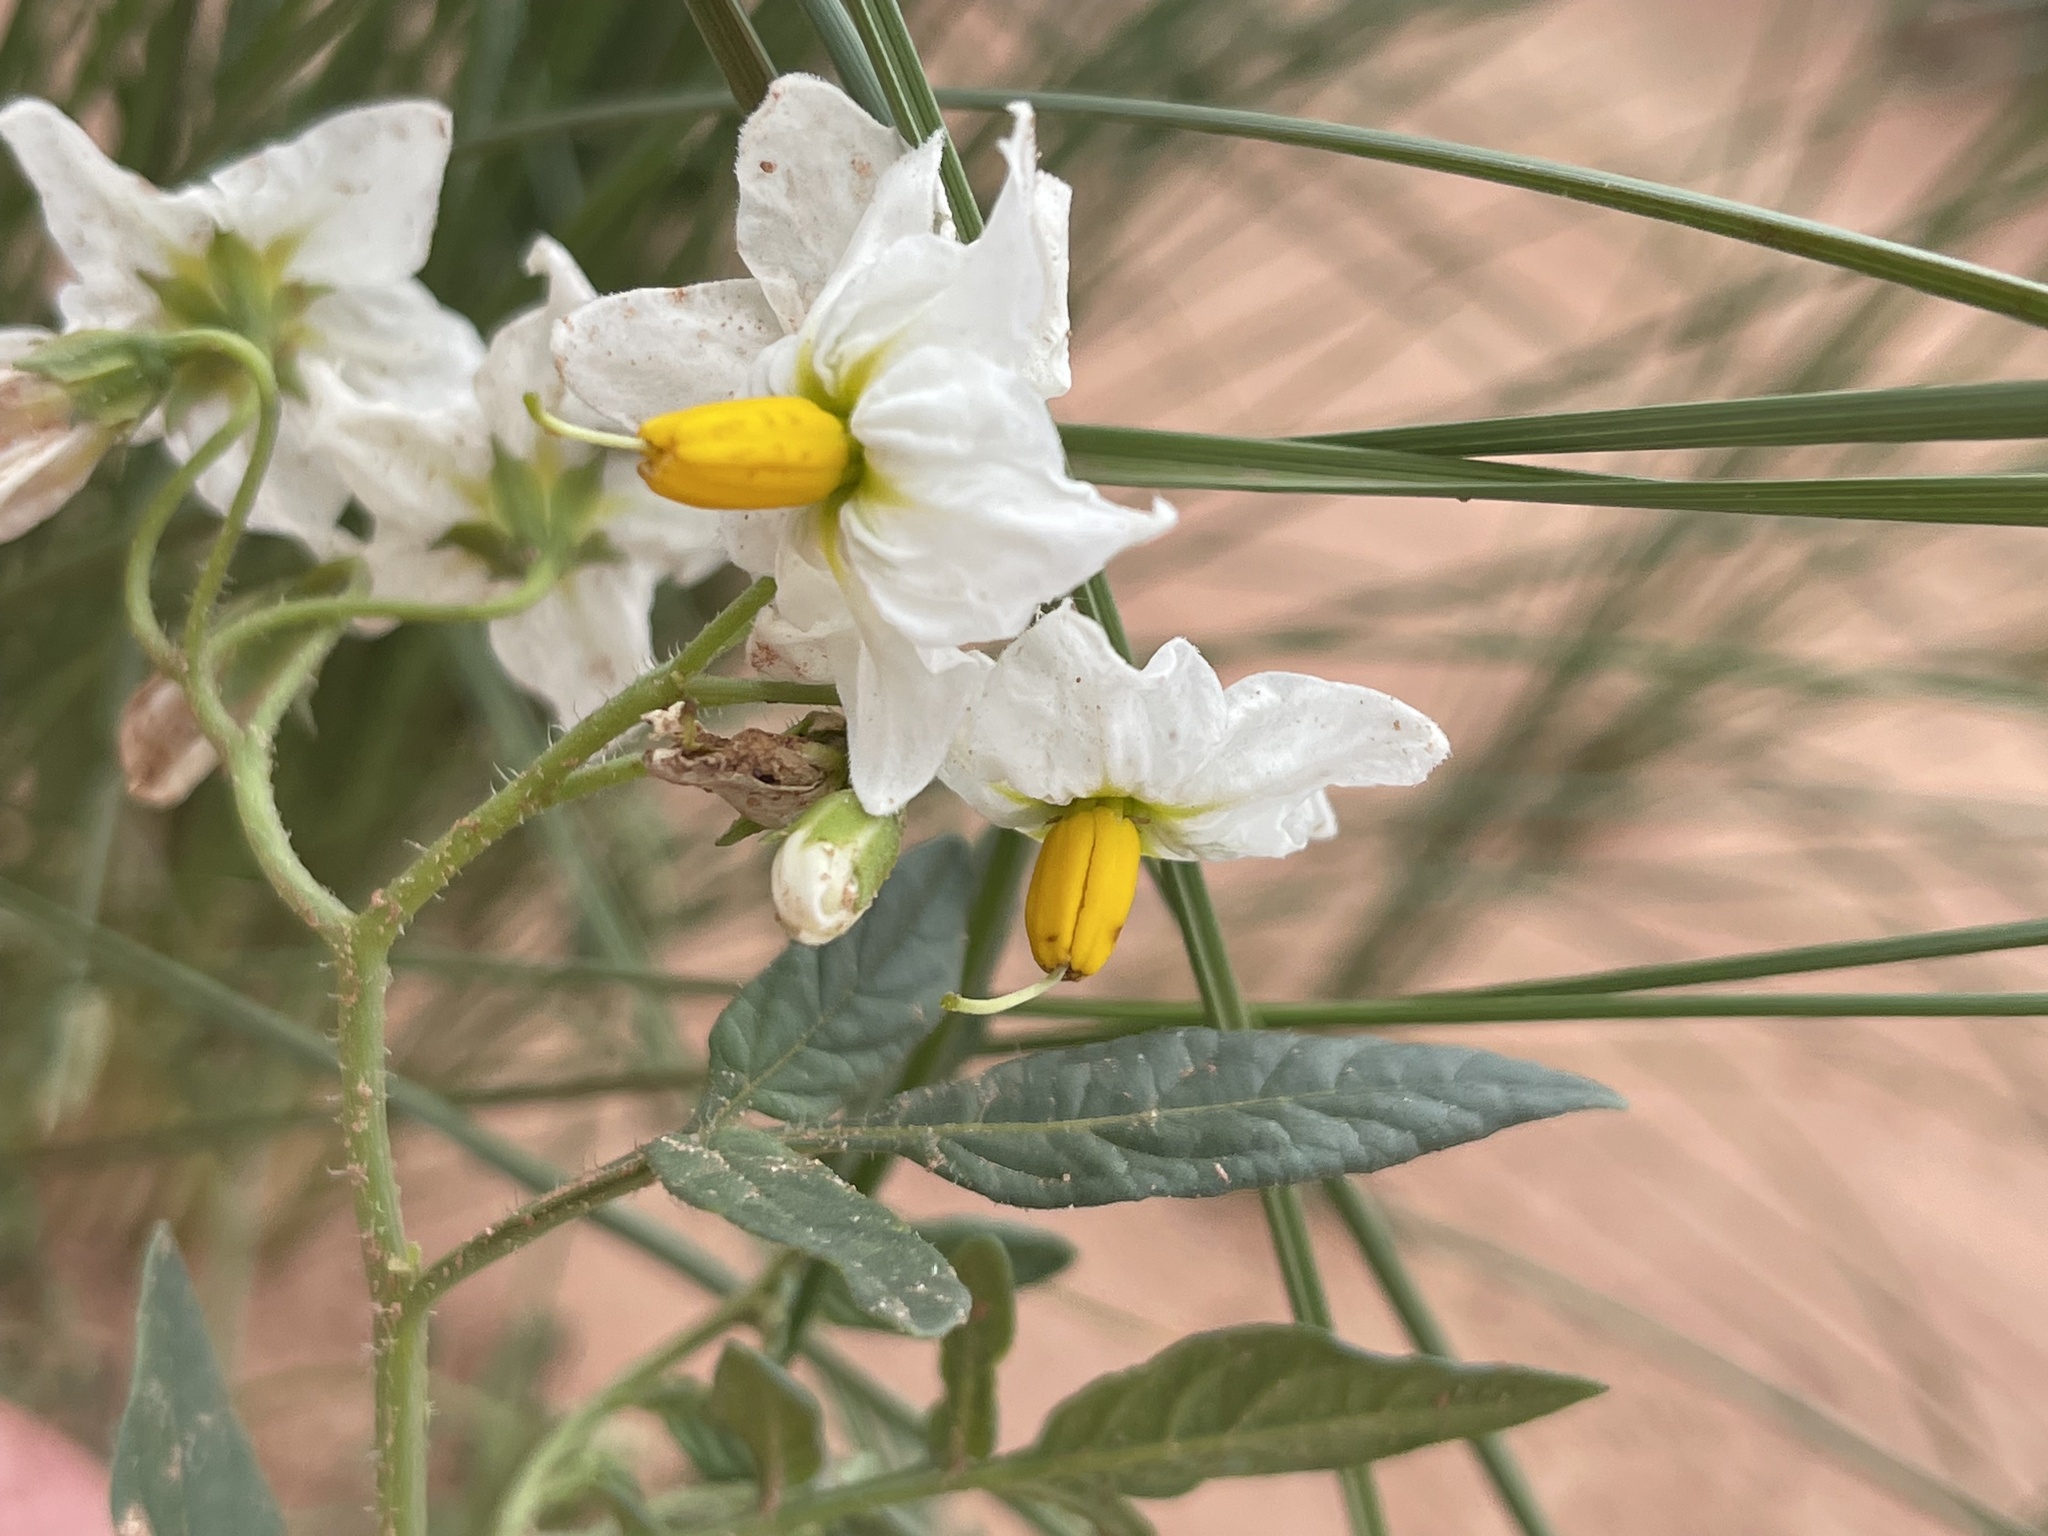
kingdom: Plantae
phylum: Tracheophyta
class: Magnoliopsida
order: Solanales
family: Solanaceae
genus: Solanum
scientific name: Solanum jamesii
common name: Wild potato
